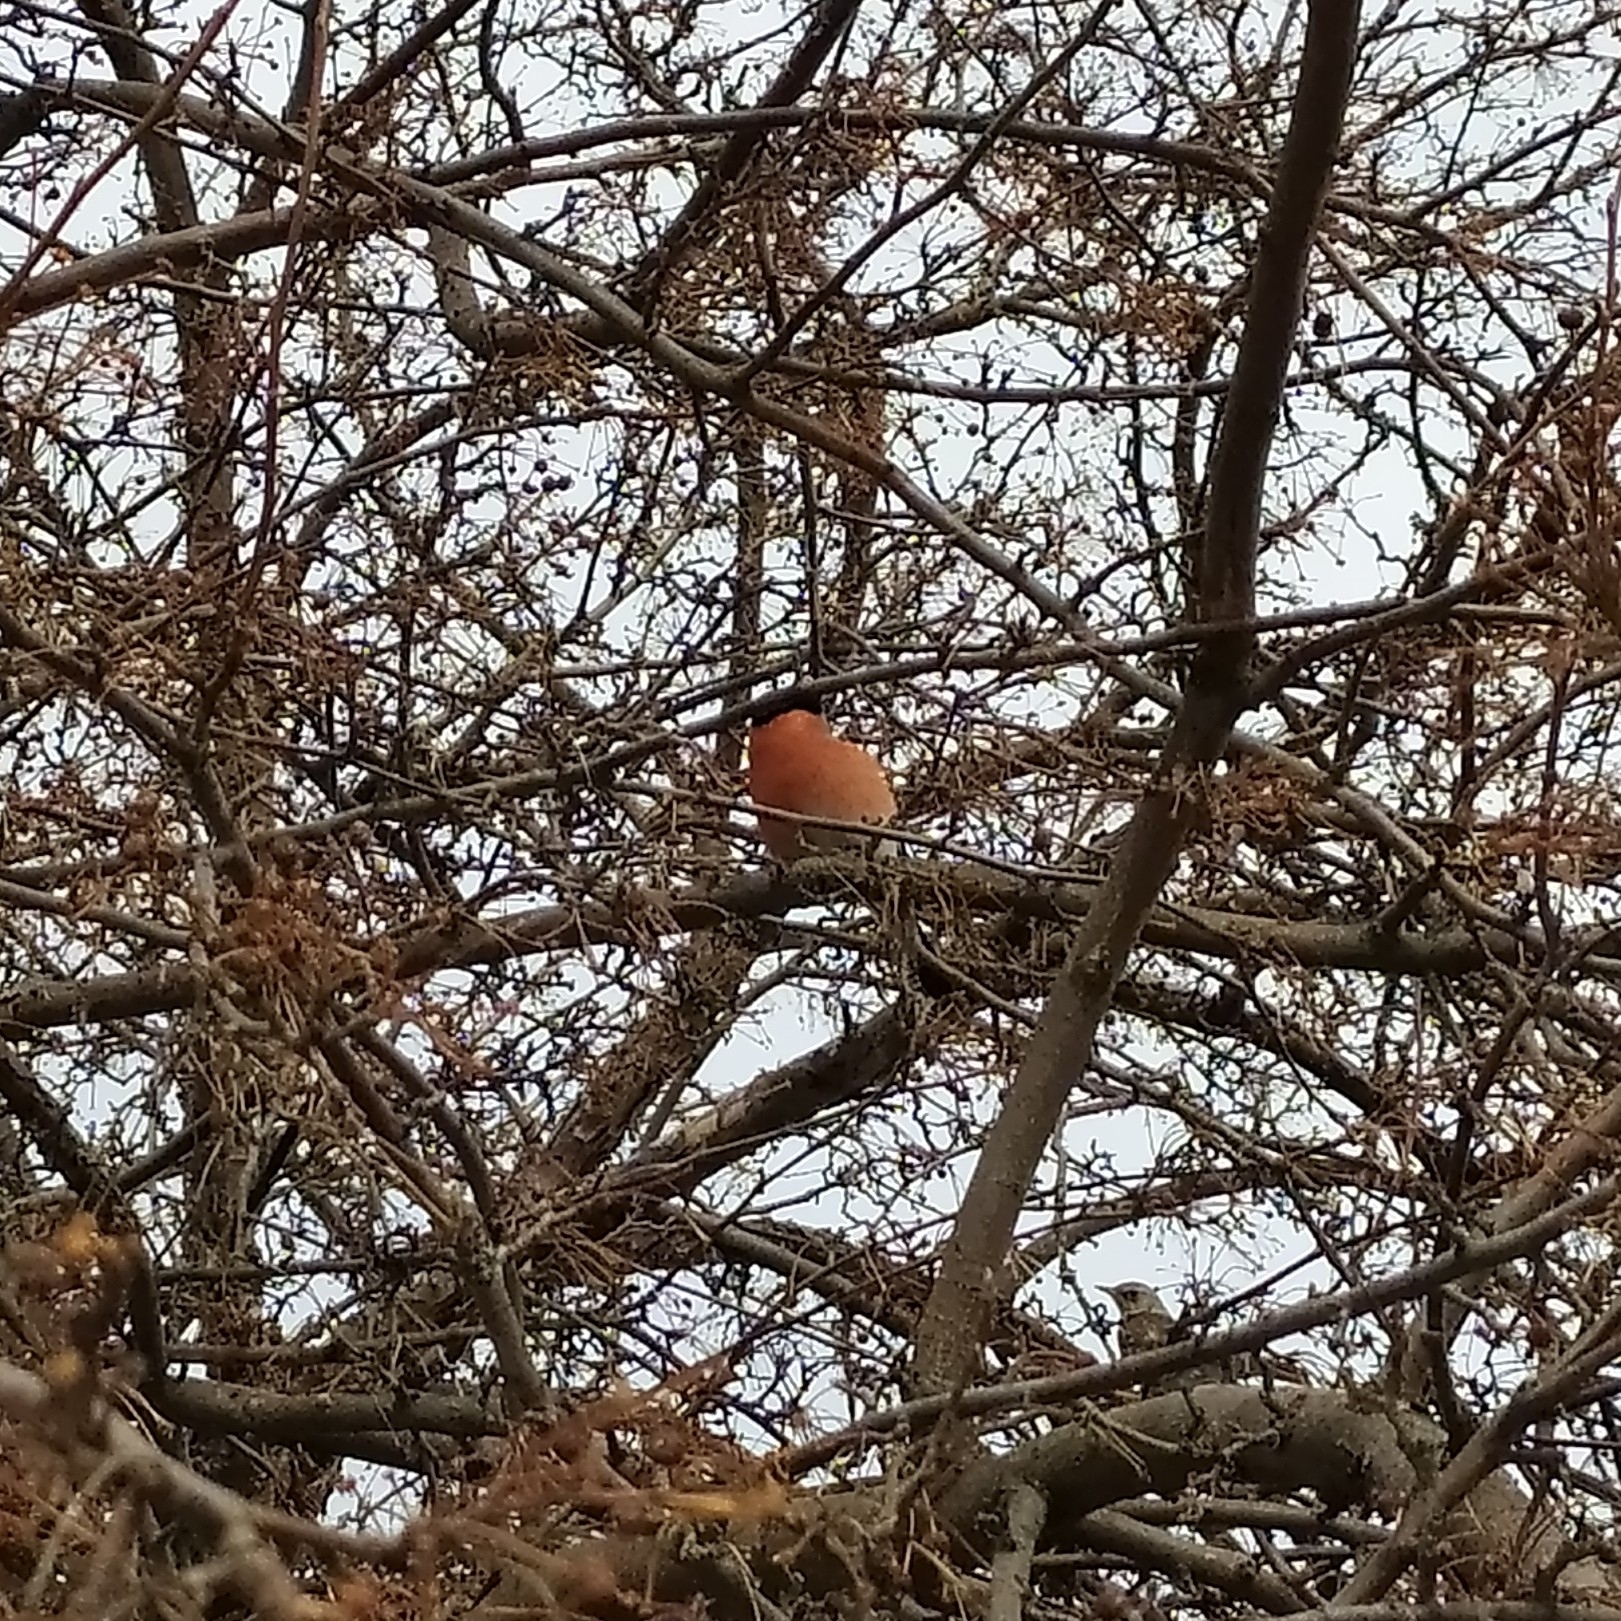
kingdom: Animalia
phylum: Chordata
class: Aves
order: Passeriformes
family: Fringillidae
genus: Pyrrhula
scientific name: Pyrrhula pyrrhula
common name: Eurasian bullfinch
